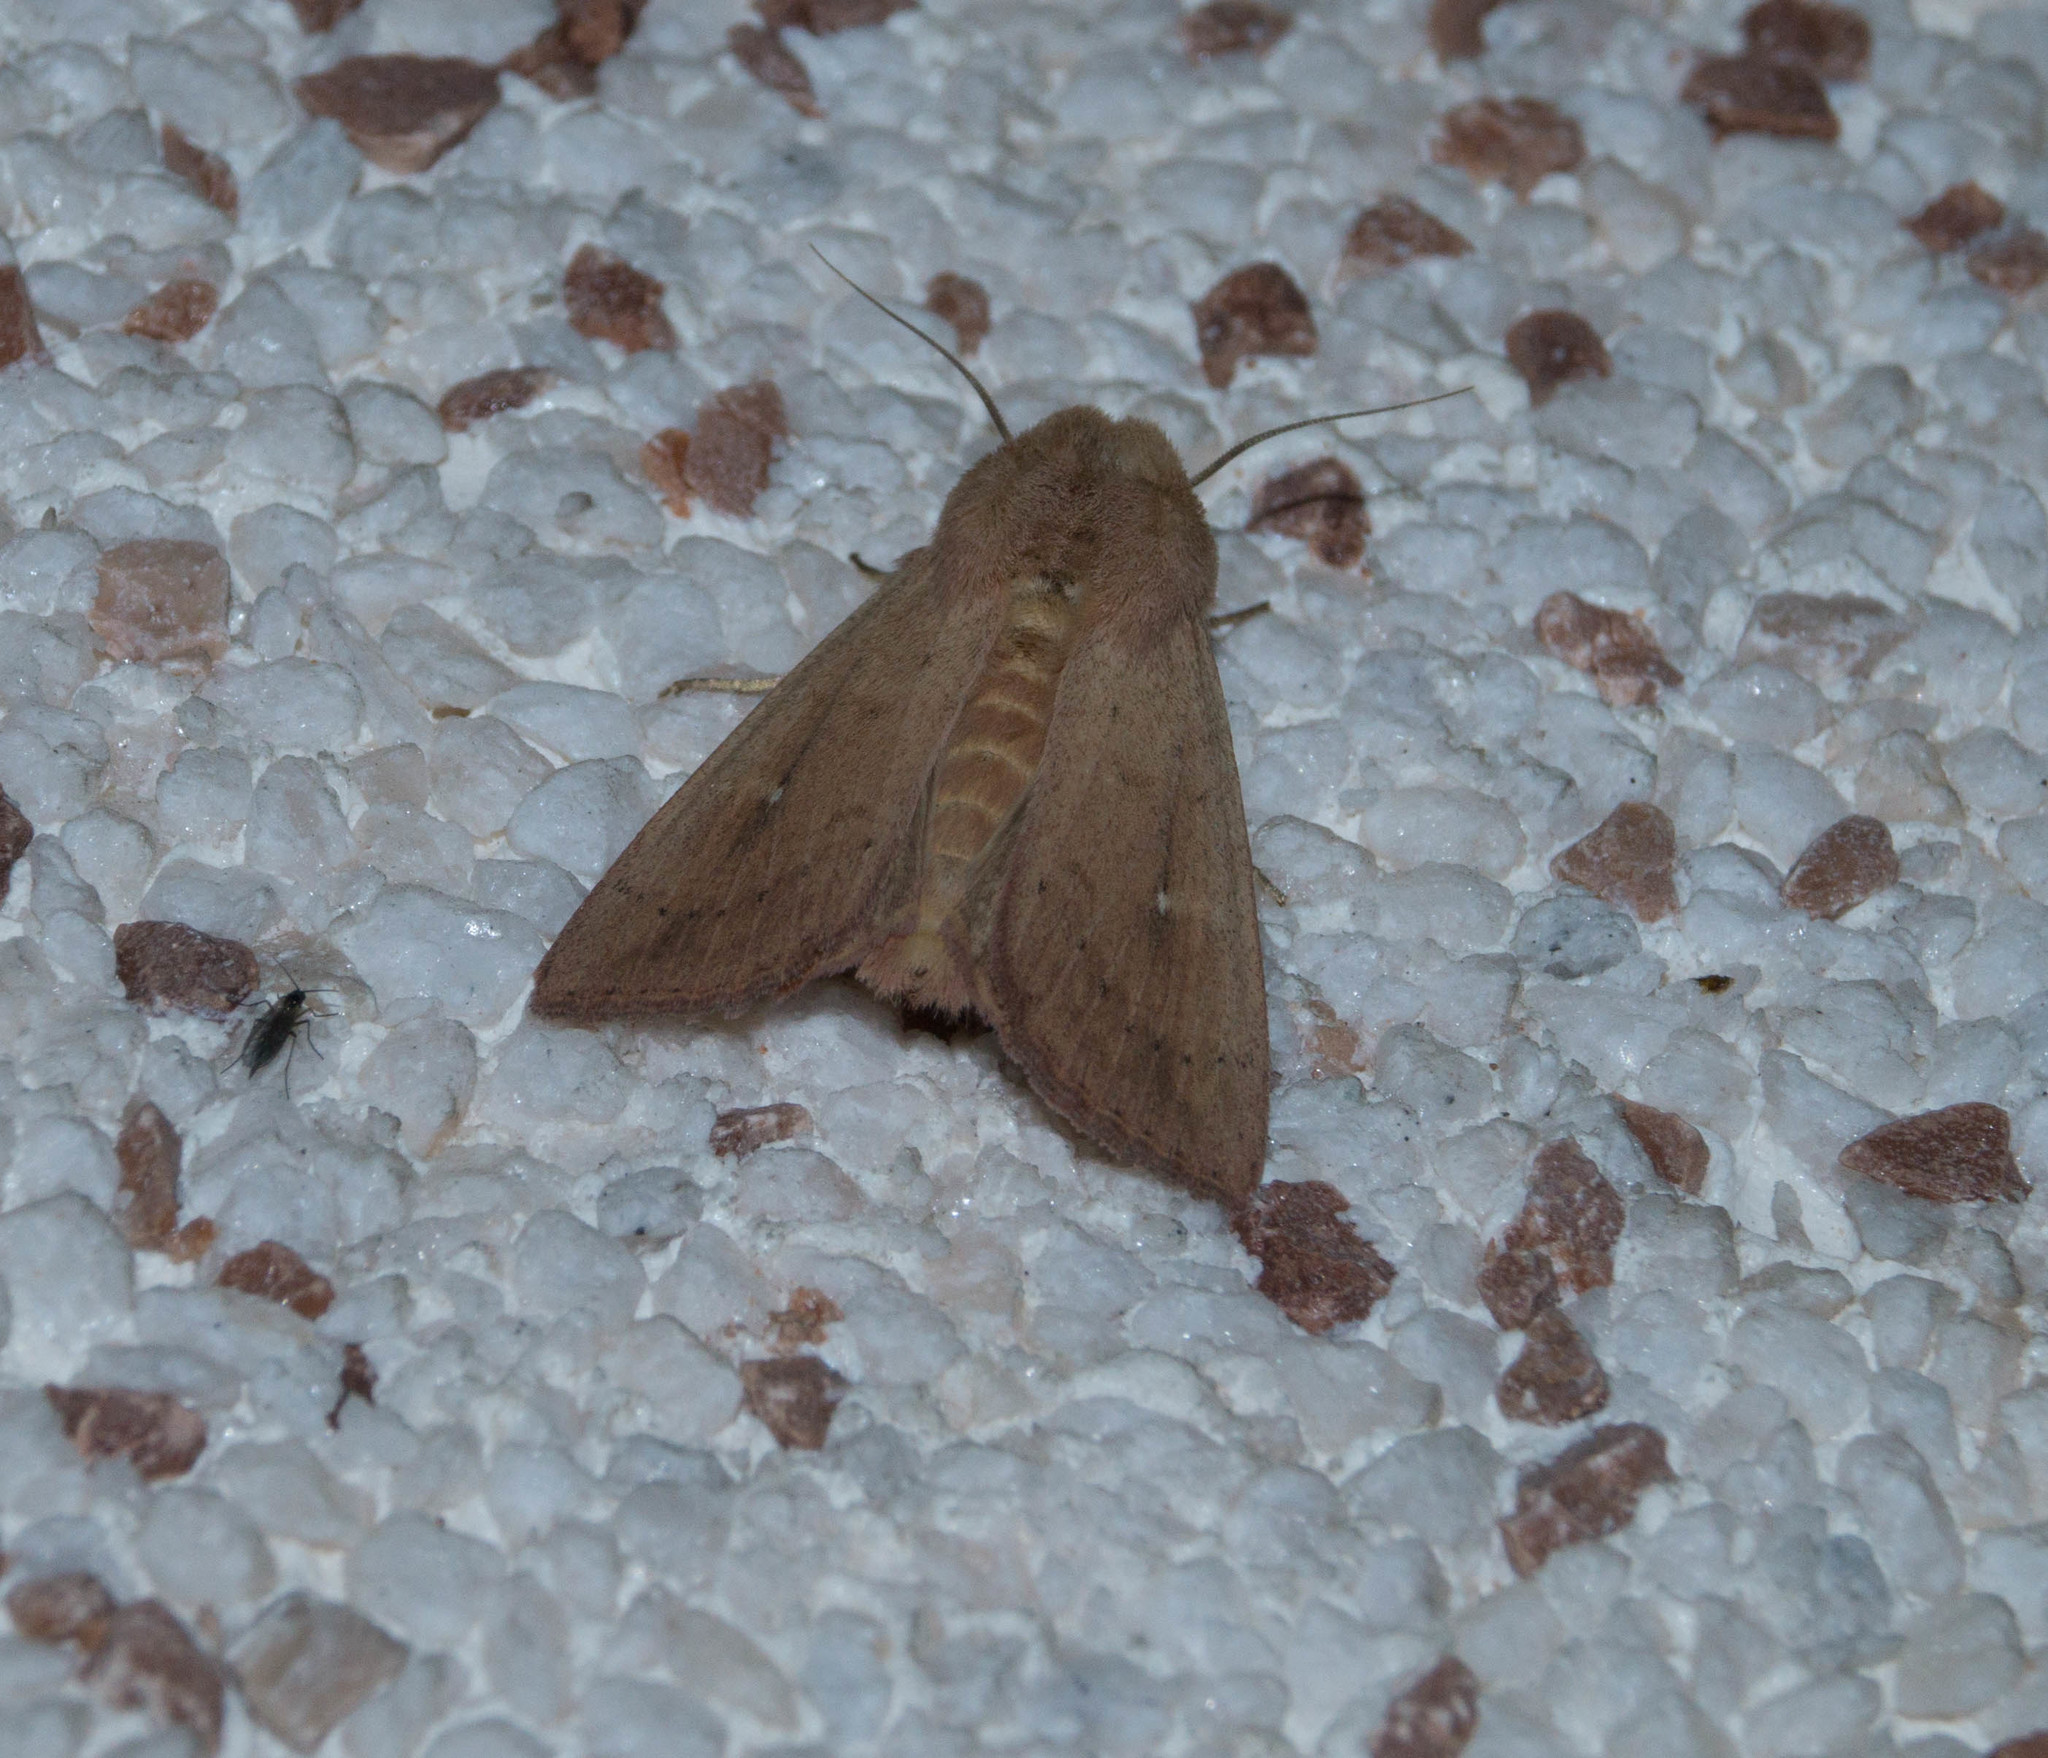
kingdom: Animalia
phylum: Arthropoda
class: Insecta
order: Lepidoptera
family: Noctuidae
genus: Mythimna
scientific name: Mythimna ferrago
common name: Clay
